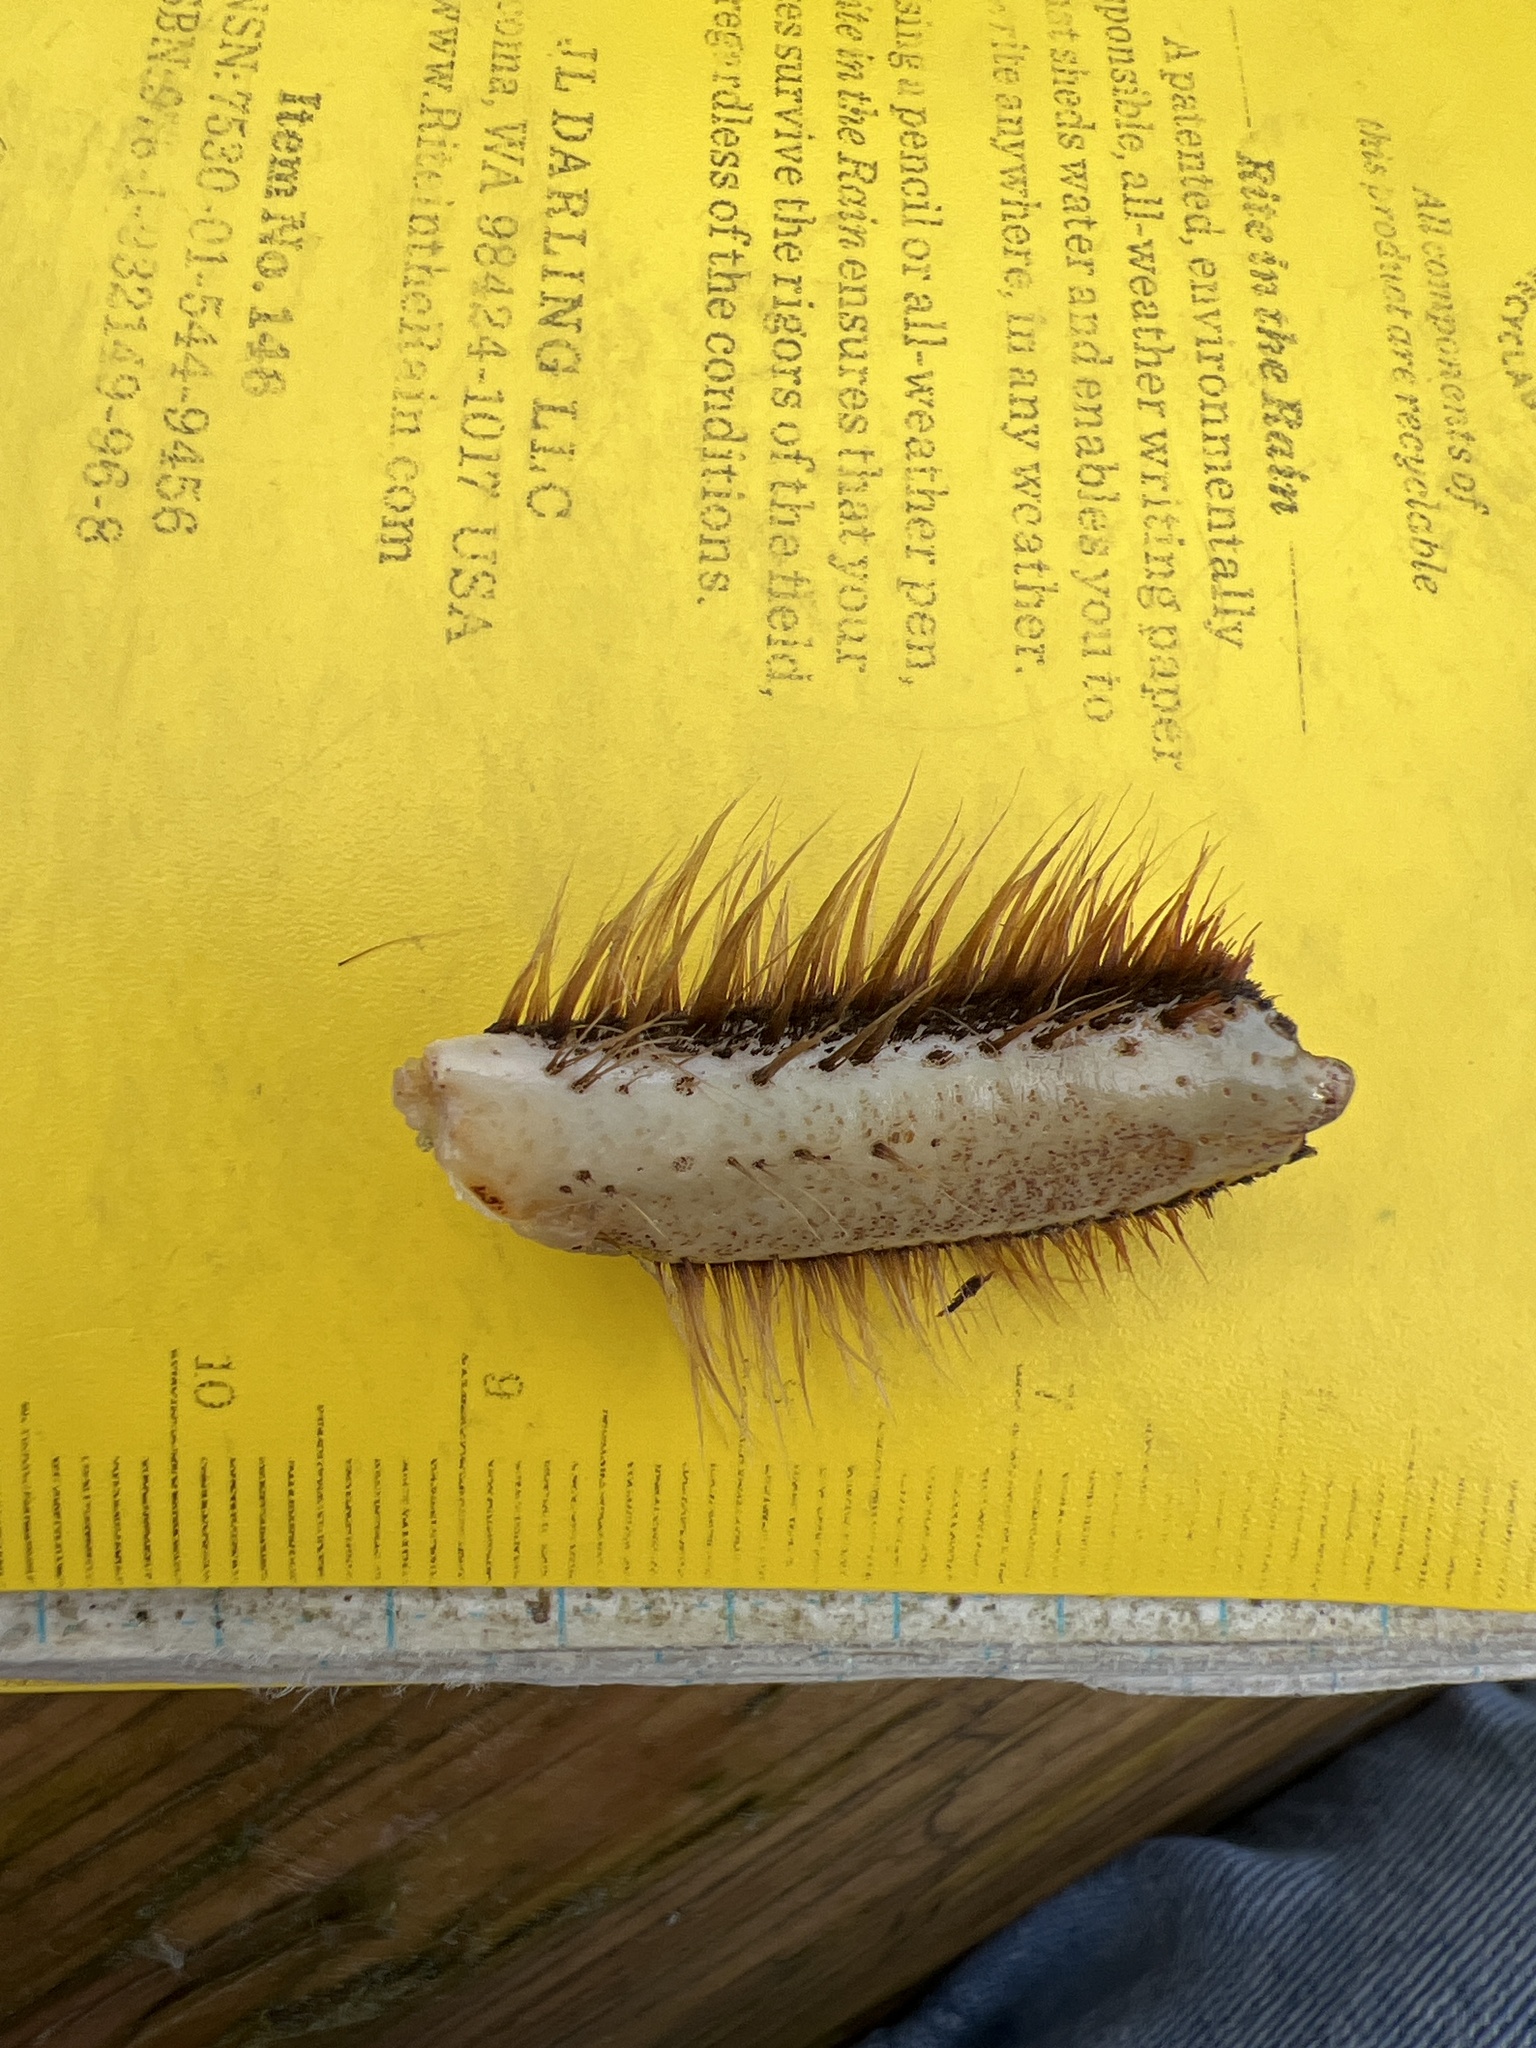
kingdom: Animalia
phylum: Arthropoda
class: Malacostraca
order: Decapoda
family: Varunidae
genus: Eriocheir
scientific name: Eriocheir sinensis
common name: Chinese mitten crab
